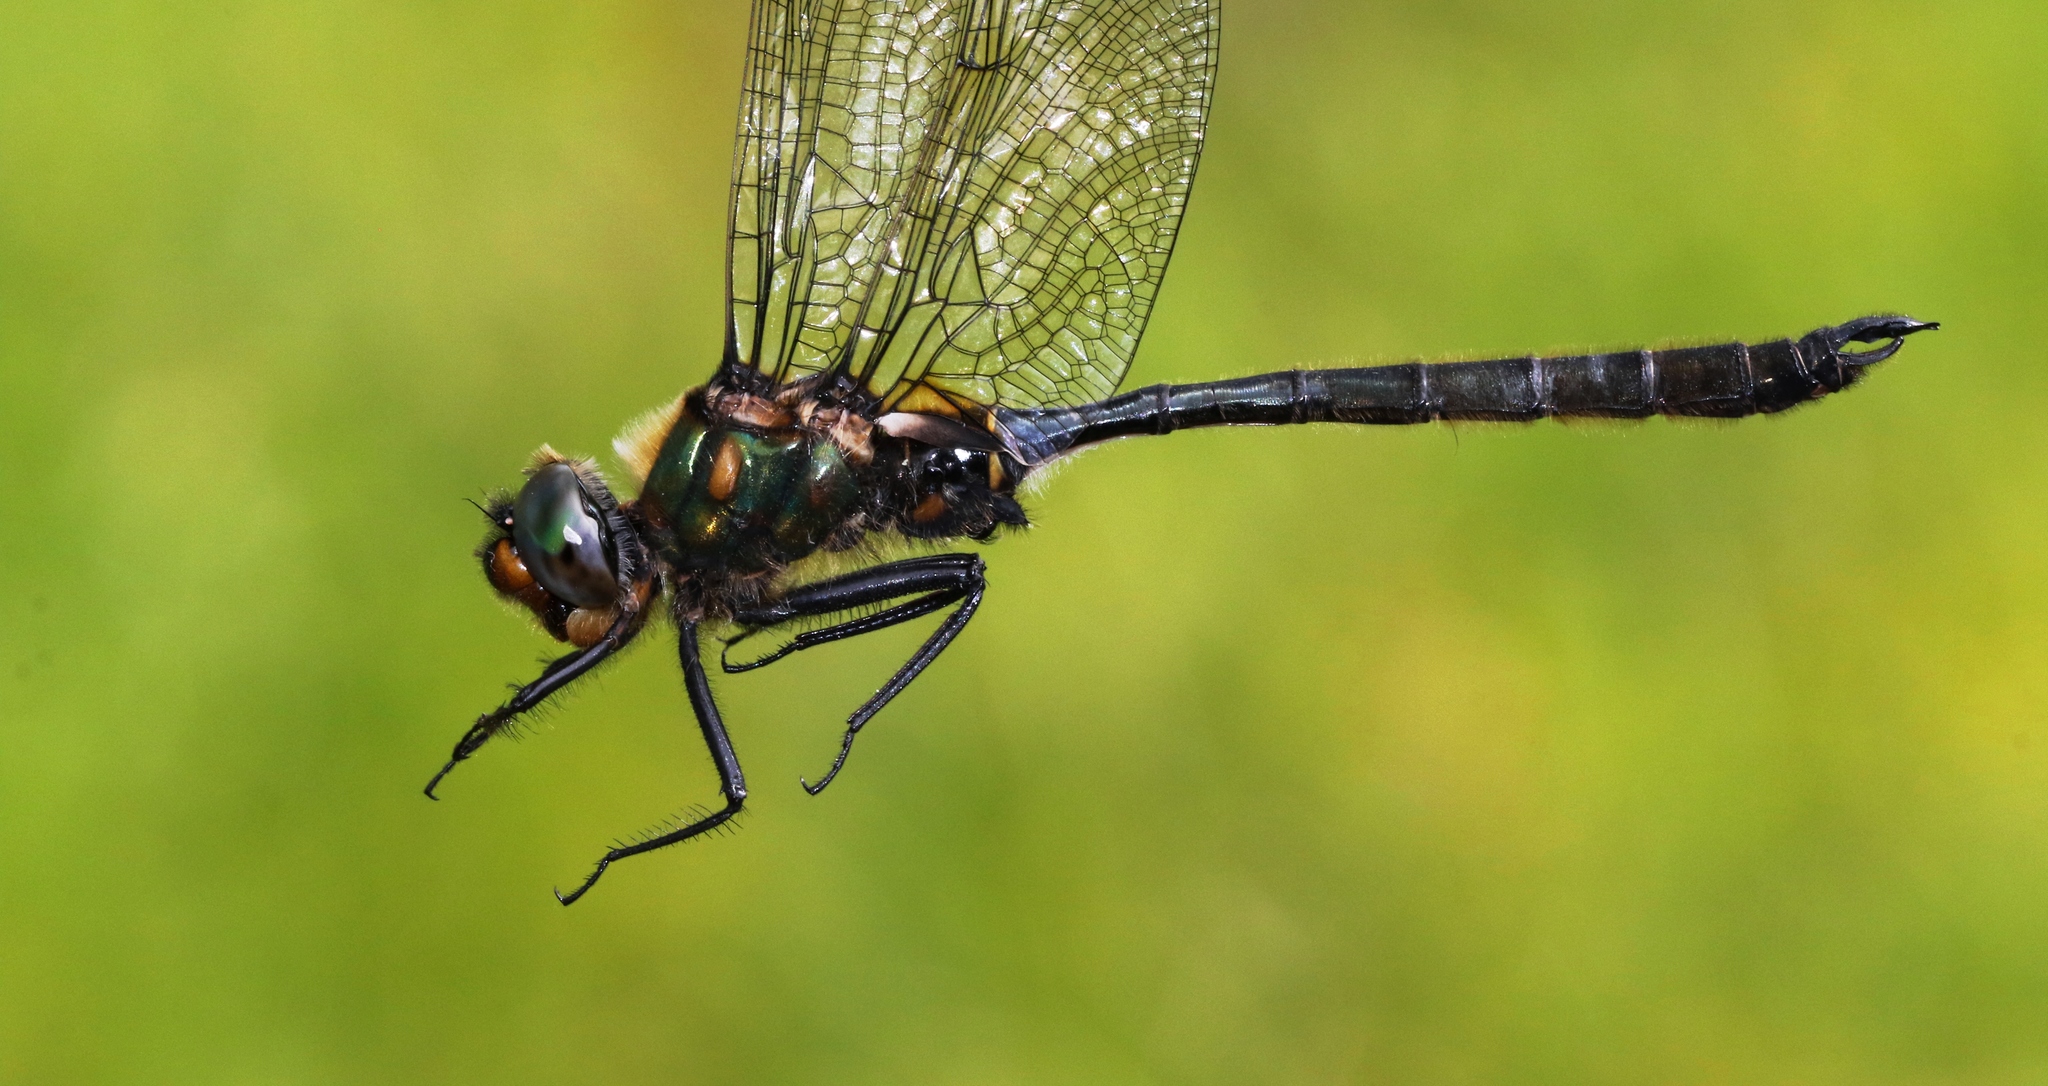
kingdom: Animalia
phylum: Arthropoda
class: Insecta
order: Odonata
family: Corduliidae
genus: Somatochlora
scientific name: Somatochlora kennedyi
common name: Kennedy's emerald
